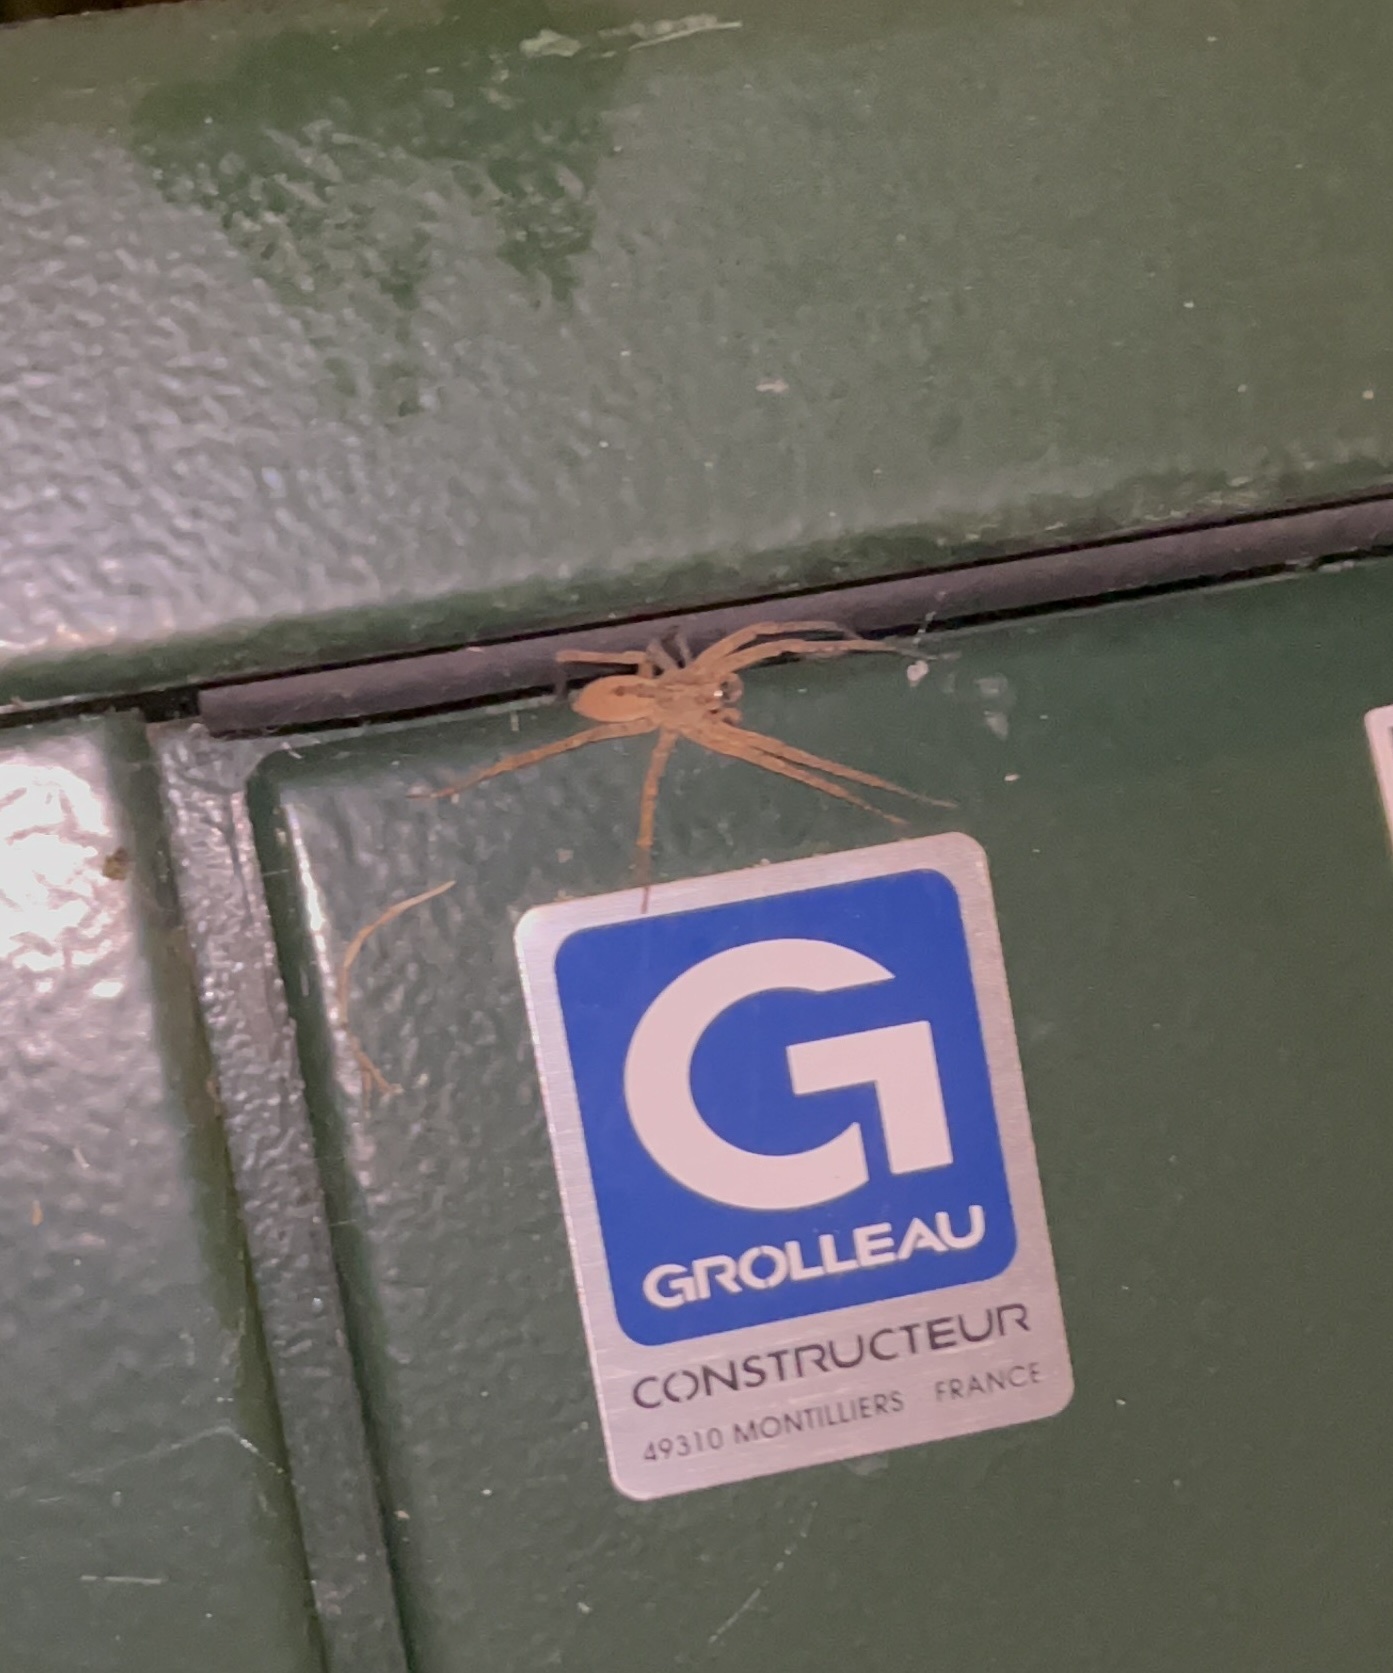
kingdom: Animalia
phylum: Arthropoda
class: Arachnida
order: Araneae
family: Zoropsidae
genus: Zoropsis
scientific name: Zoropsis spinimana
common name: Zoropsid spider
